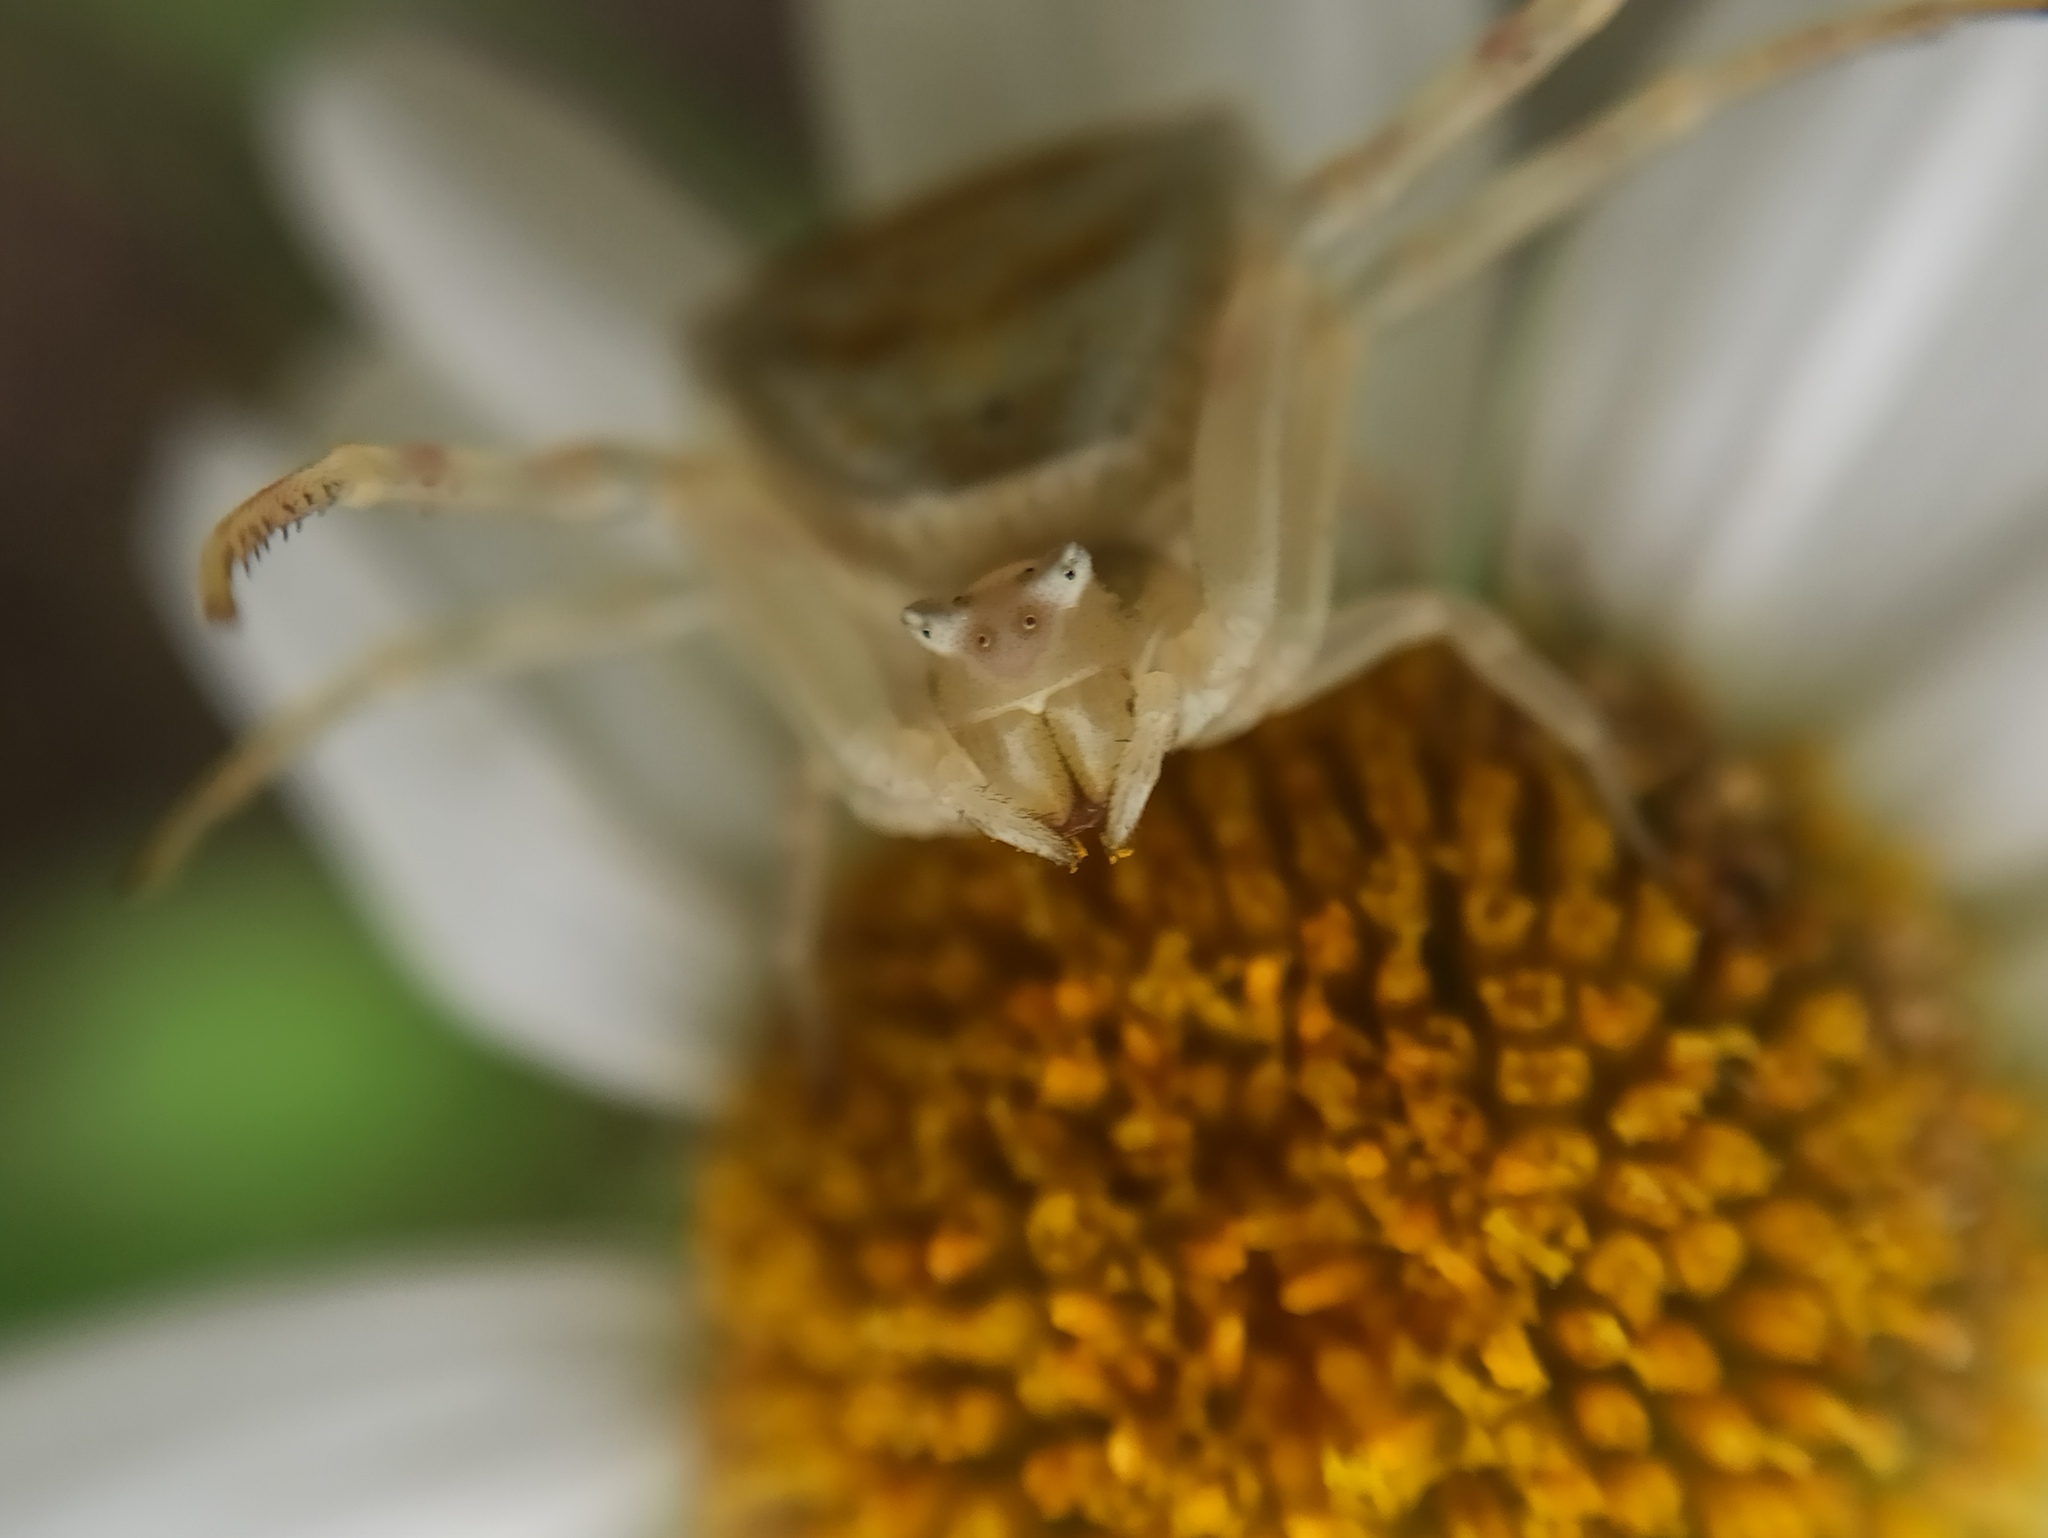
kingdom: Animalia
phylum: Arthropoda
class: Arachnida
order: Araneae
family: Thomisidae
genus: Thomisus
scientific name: Thomisus onustus
